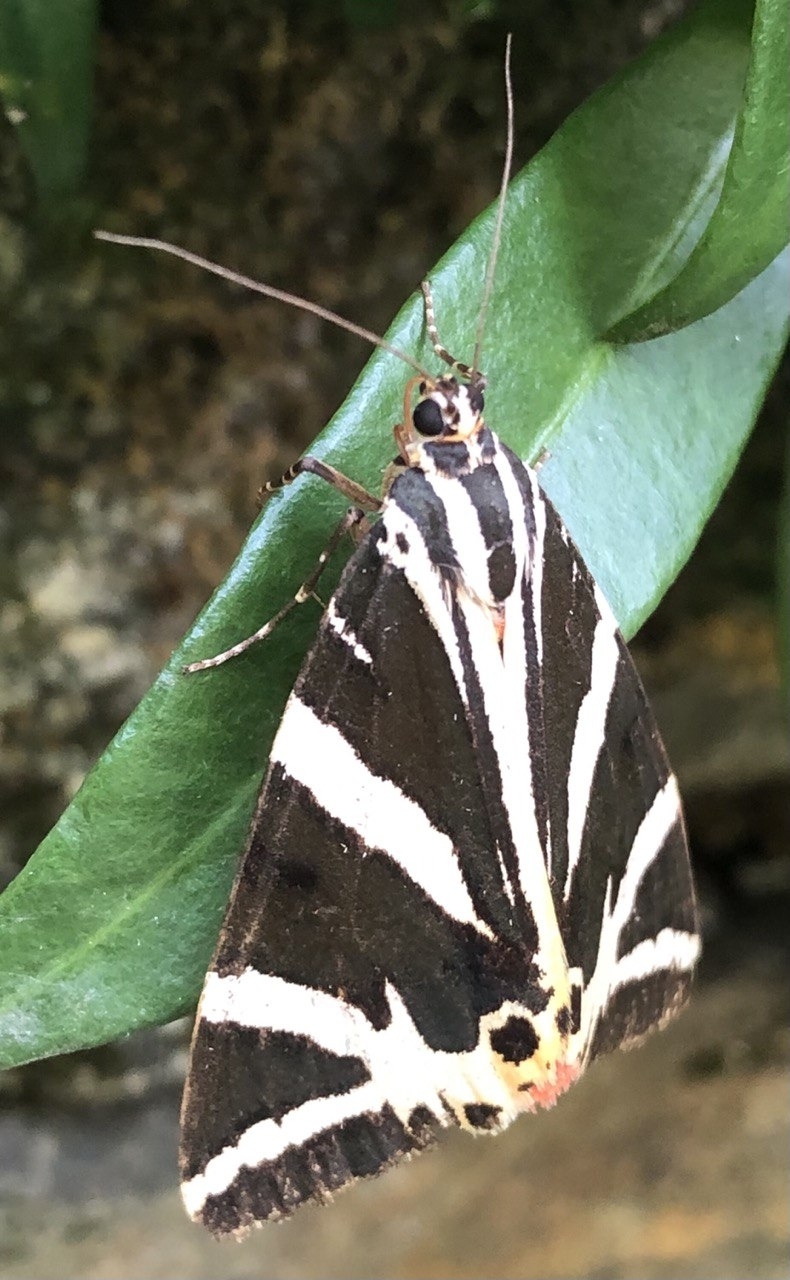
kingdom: Animalia
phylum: Arthropoda
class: Insecta
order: Lepidoptera
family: Erebidae
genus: Euplagia
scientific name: Euplagia quadripunctaria
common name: Jersey tiger
